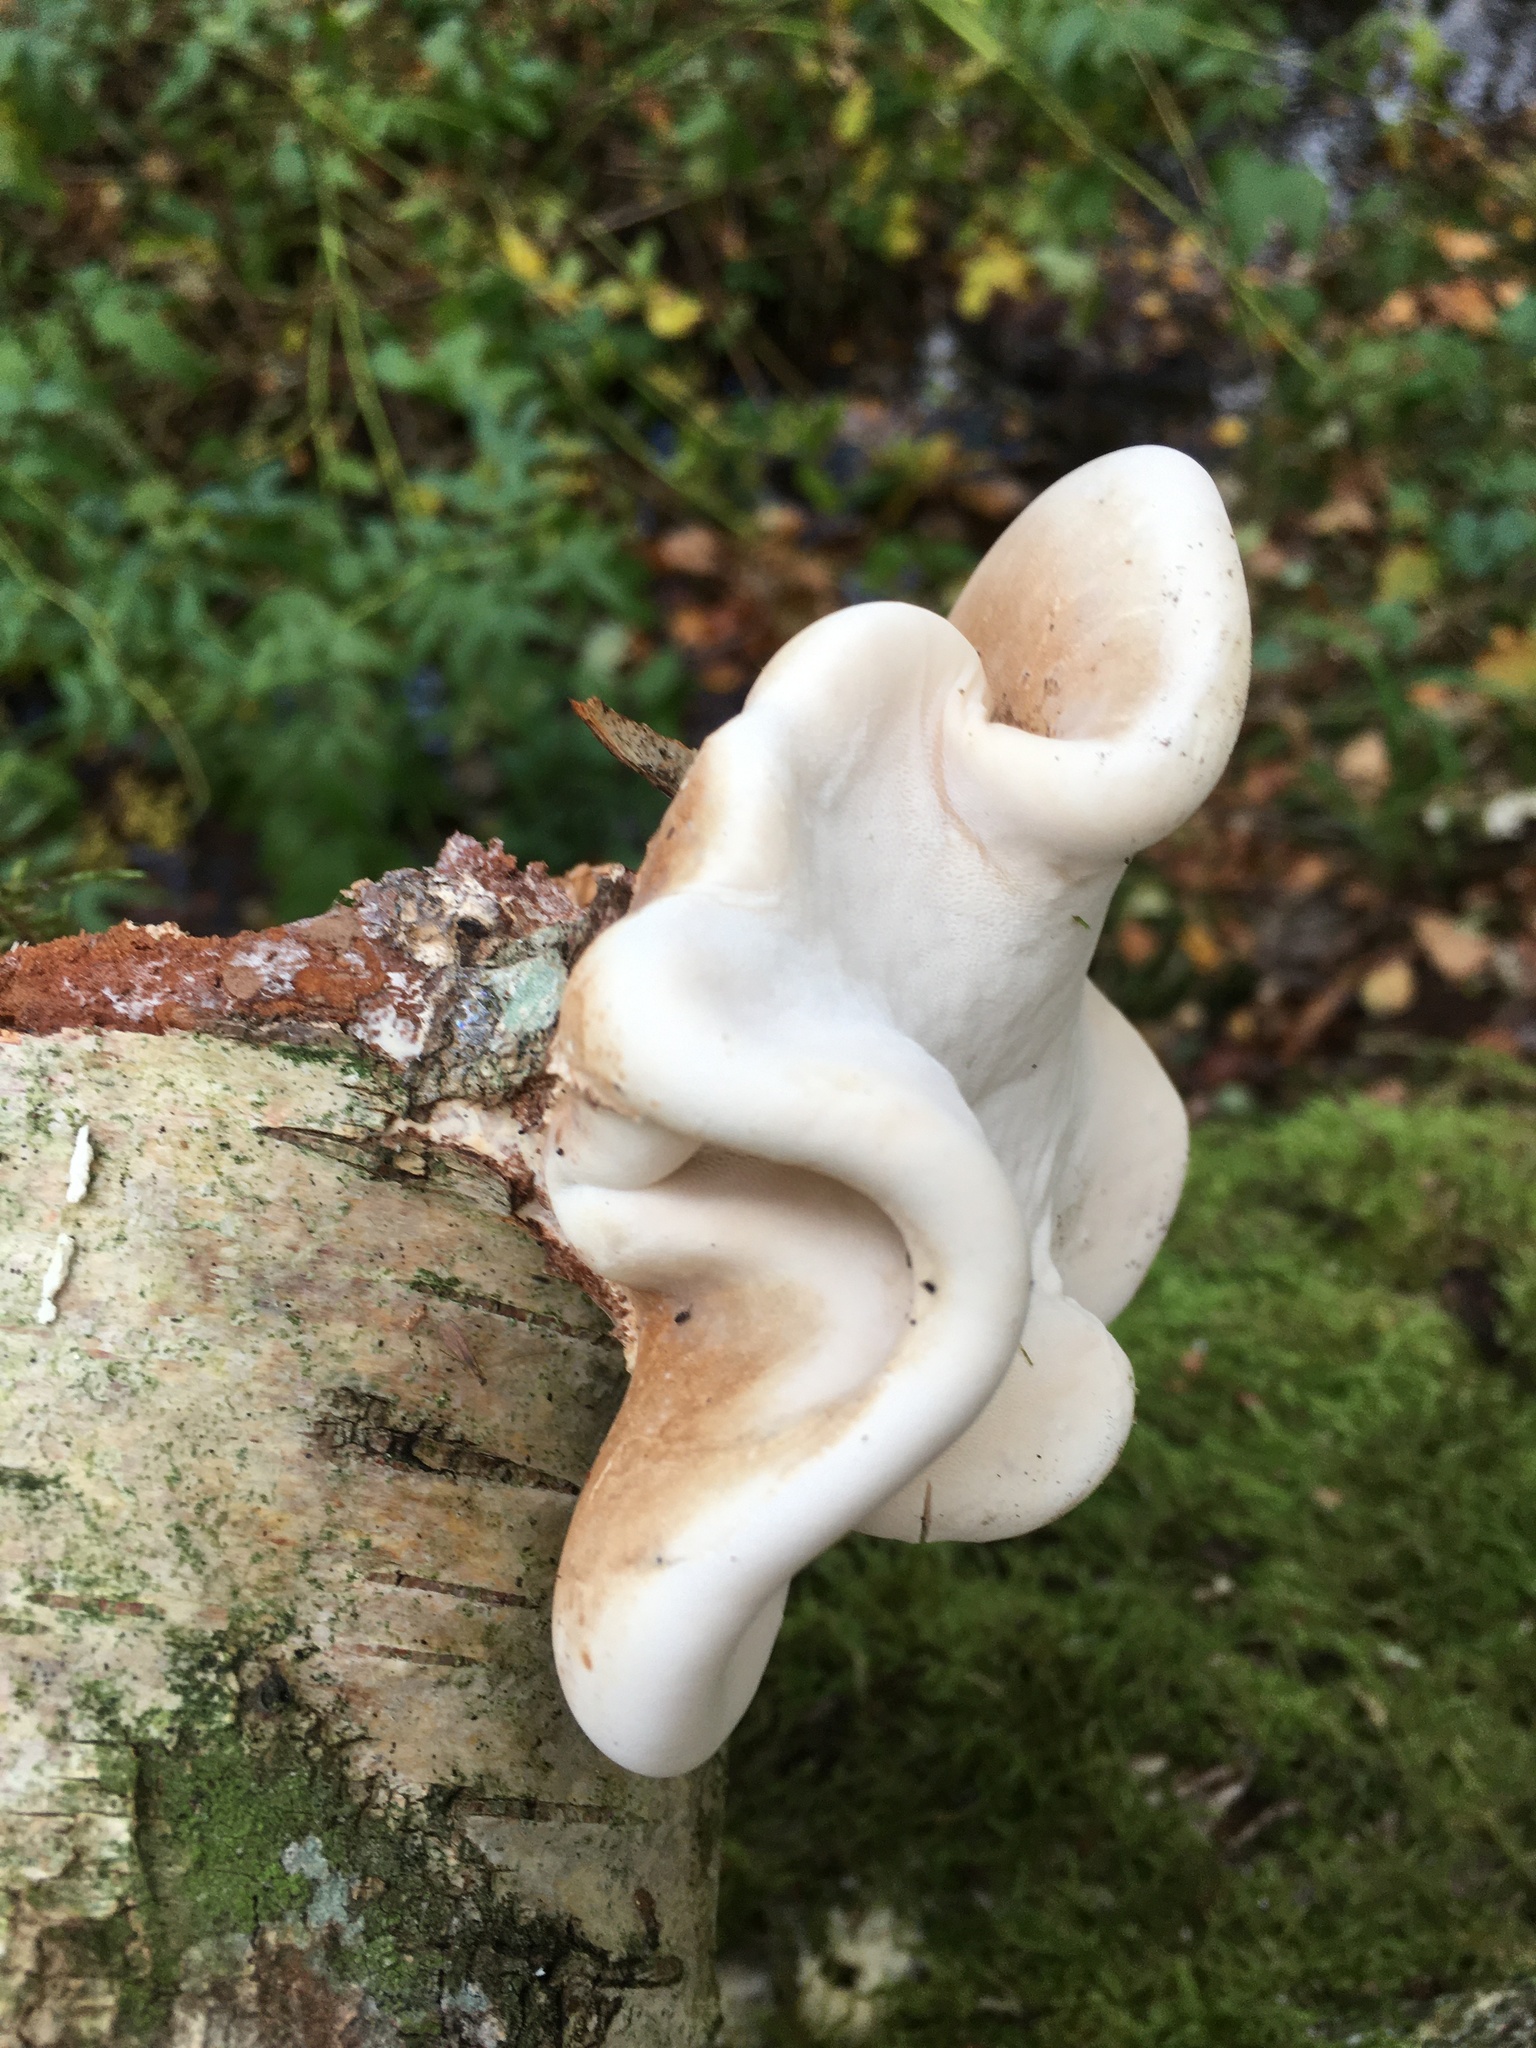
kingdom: Fungi
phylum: Basidiomycota
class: Agaricomycetes
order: Polyporales
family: Fomitopsidaceae
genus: Fomitopsis
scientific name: Fomitopsis betulina
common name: Birch polypore
